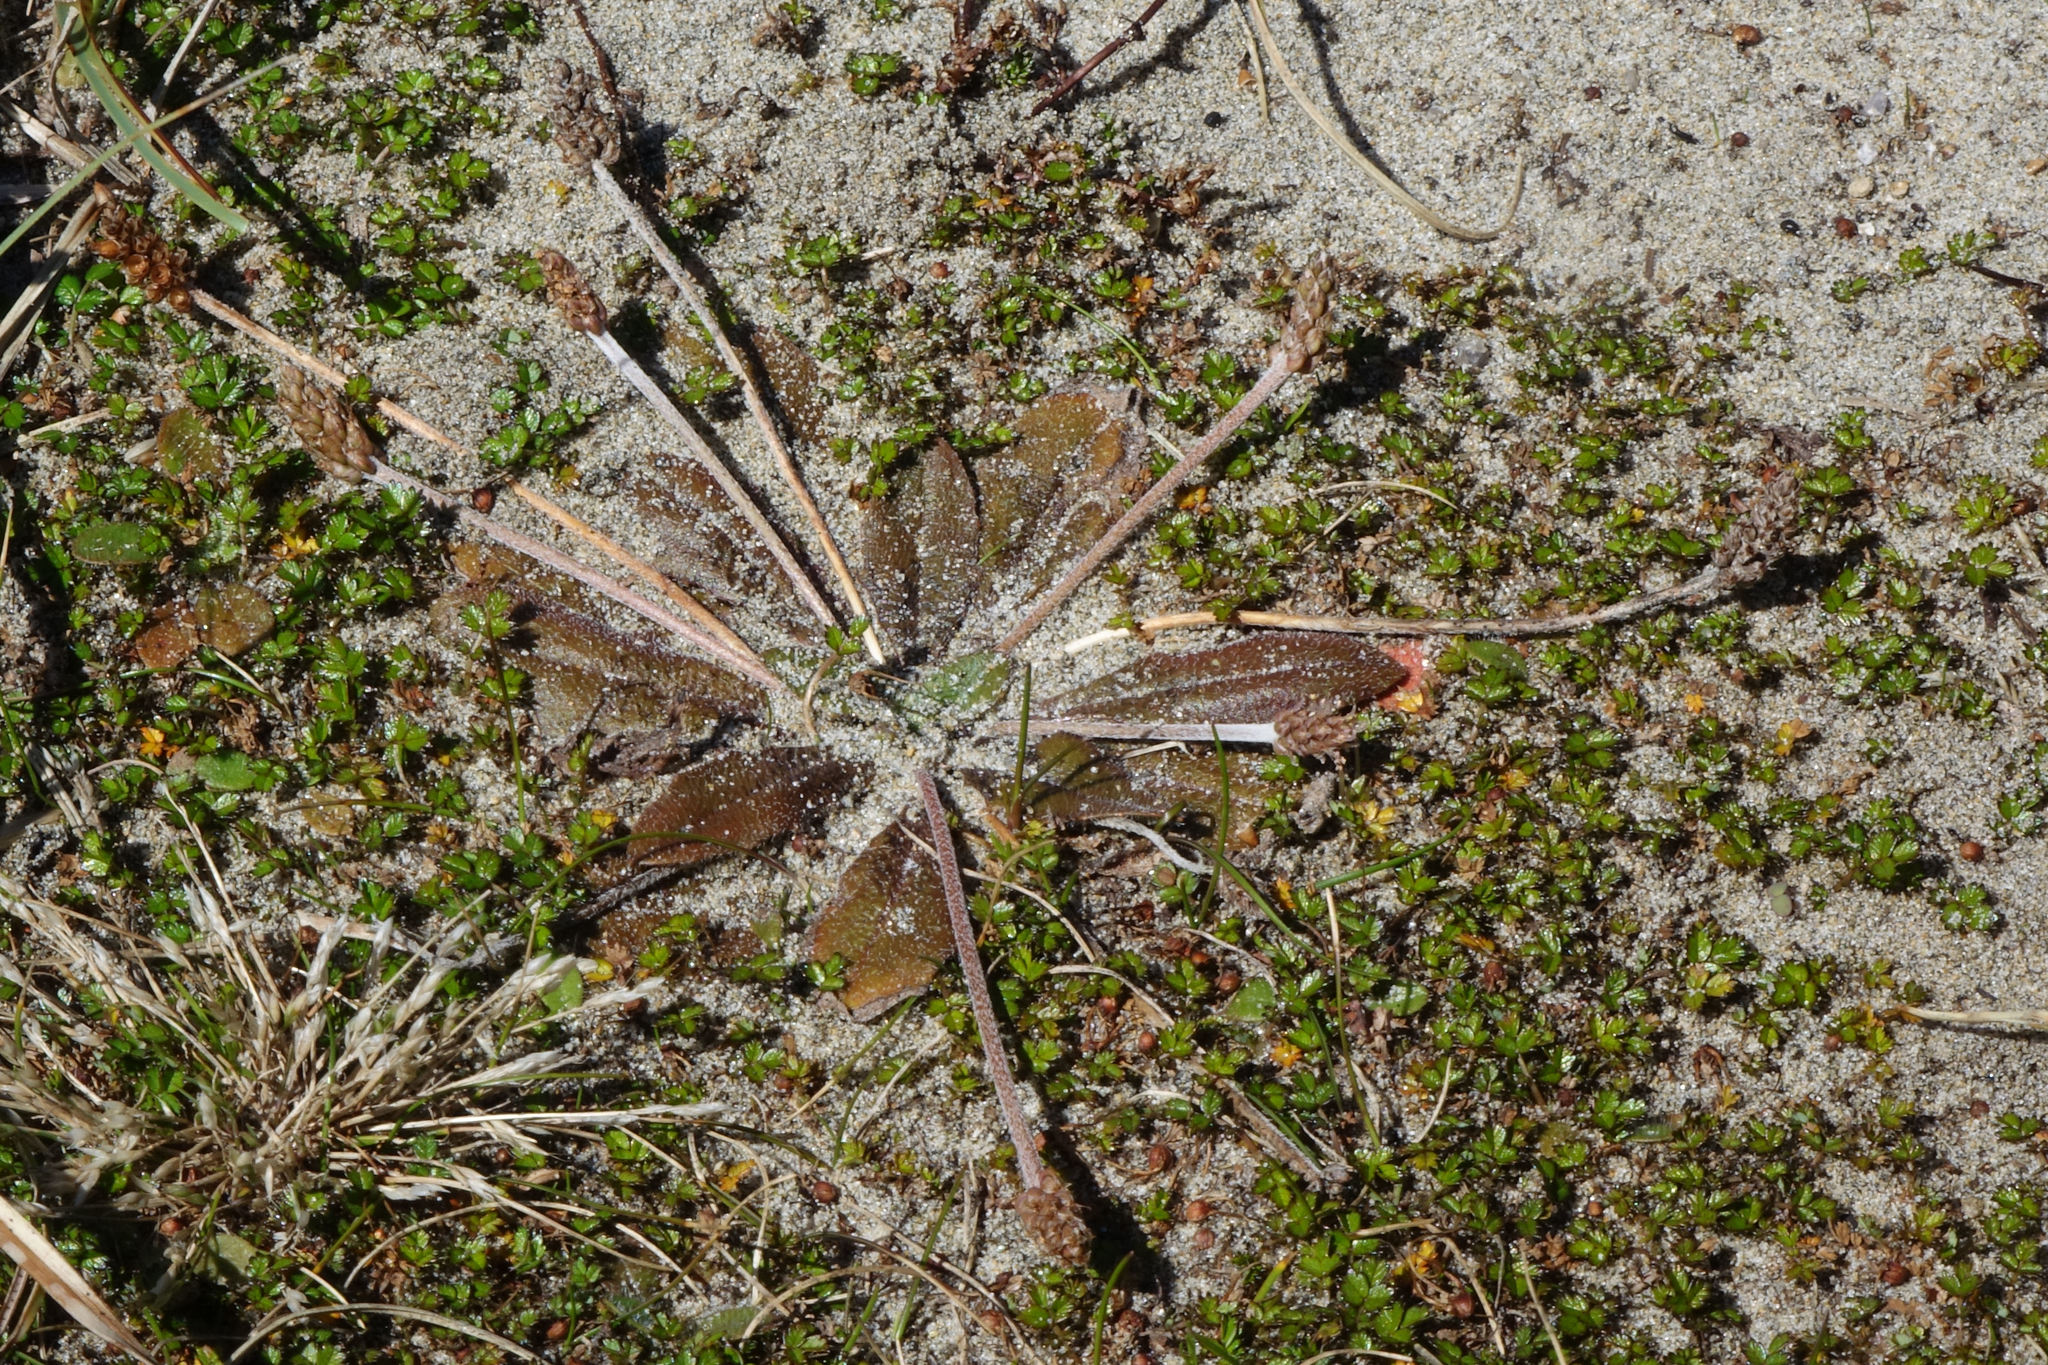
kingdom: Plantae
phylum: Tracheophyta
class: Magnoliopsida
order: Lamiales
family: Plantaginaceae
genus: Plantago
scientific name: Plantago raoulii
